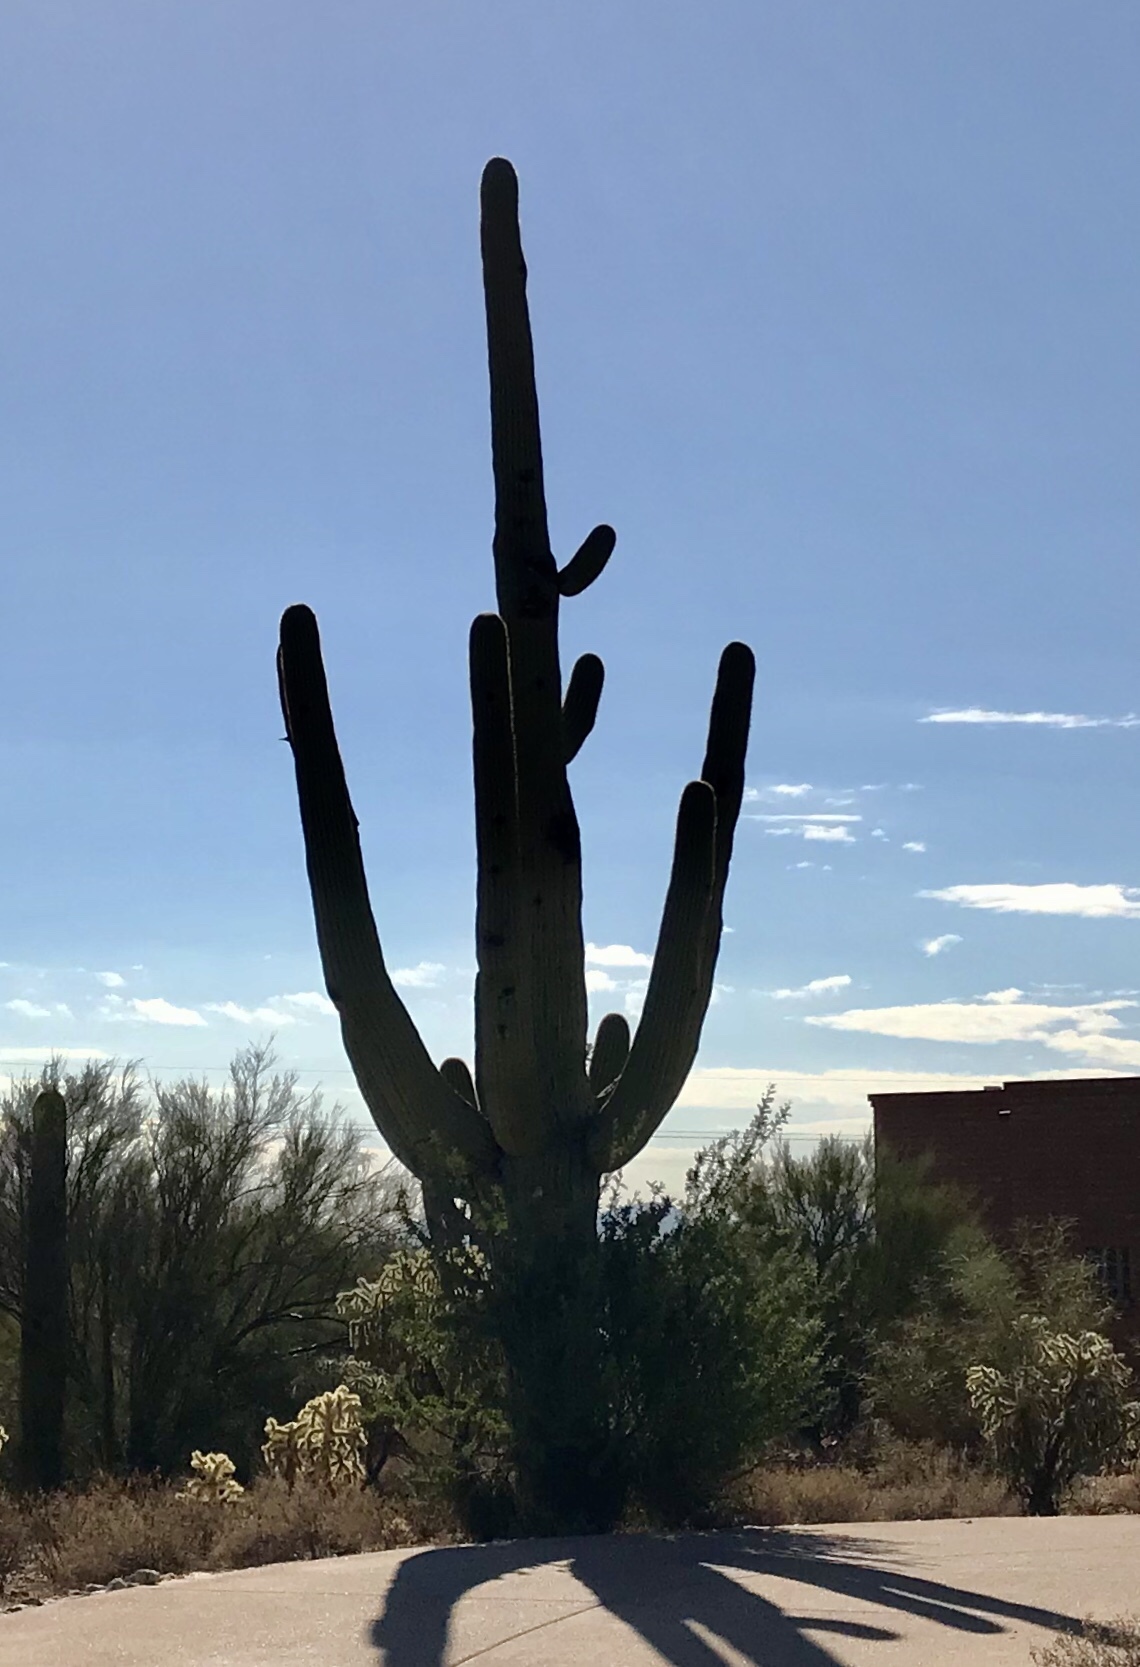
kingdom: Plantae
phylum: Tracheophyta
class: Magnoliopsida
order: Caryophyllales
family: Cactaceae
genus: Carnegiea
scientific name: Carnegiea gigantea
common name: Saguaro
